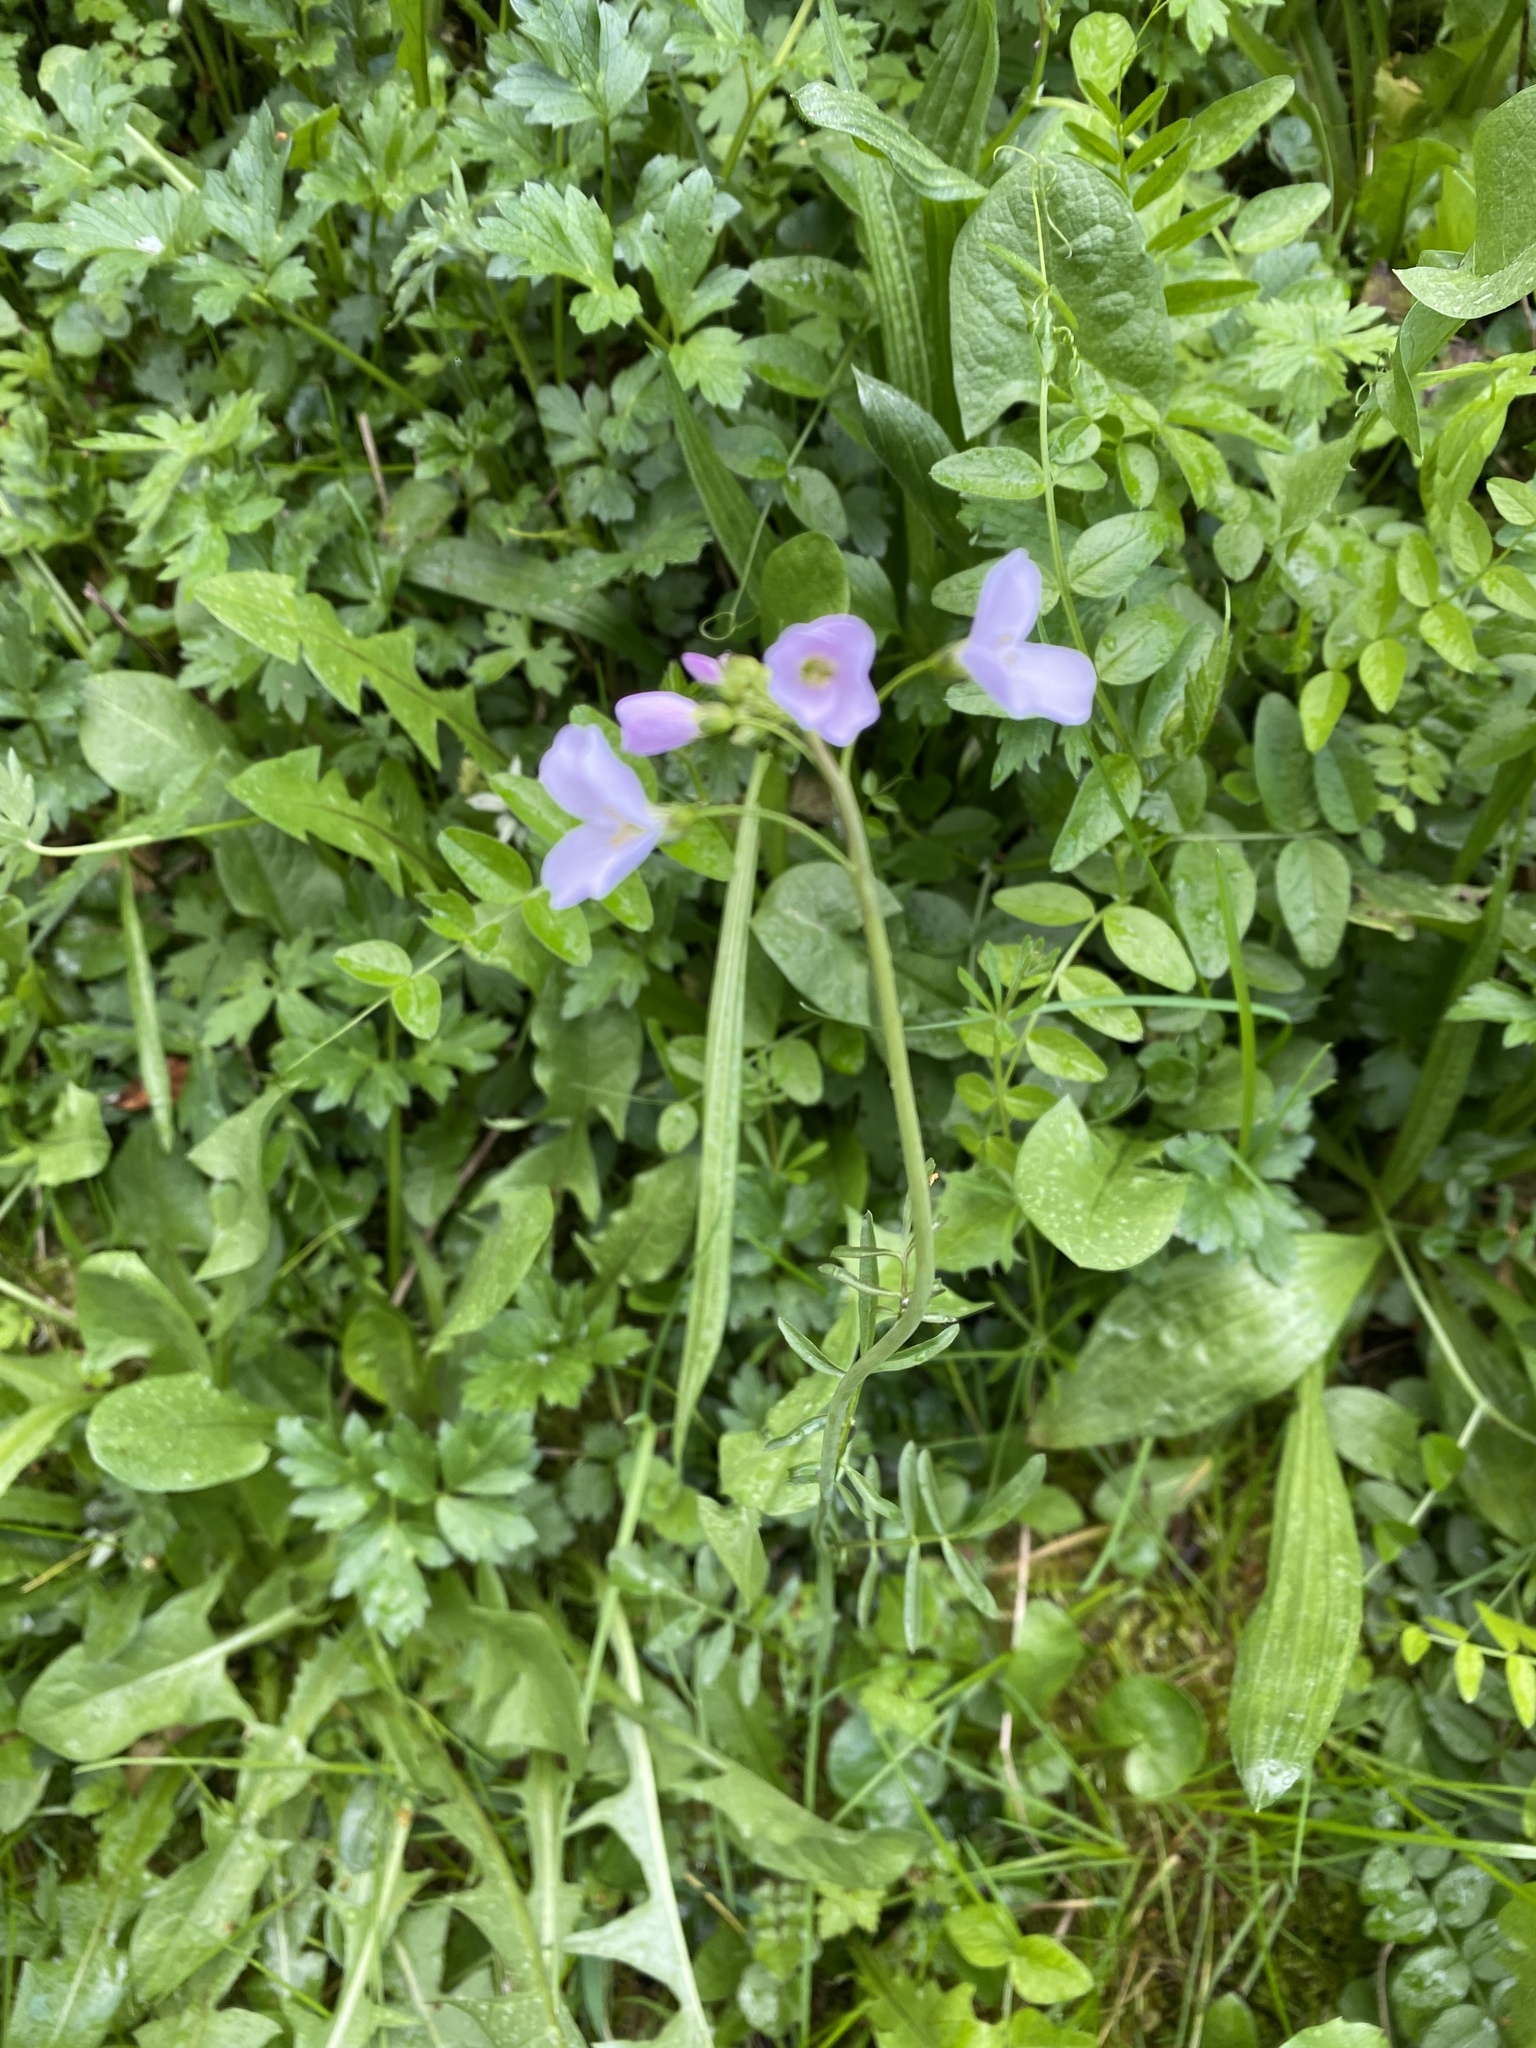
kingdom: Plantae
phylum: Tracheophyta
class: Magnoliopsida
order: Brassicales
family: Brassicaceae
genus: Cardamine
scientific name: Cardamine pratensis
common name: Cuckoo flower
